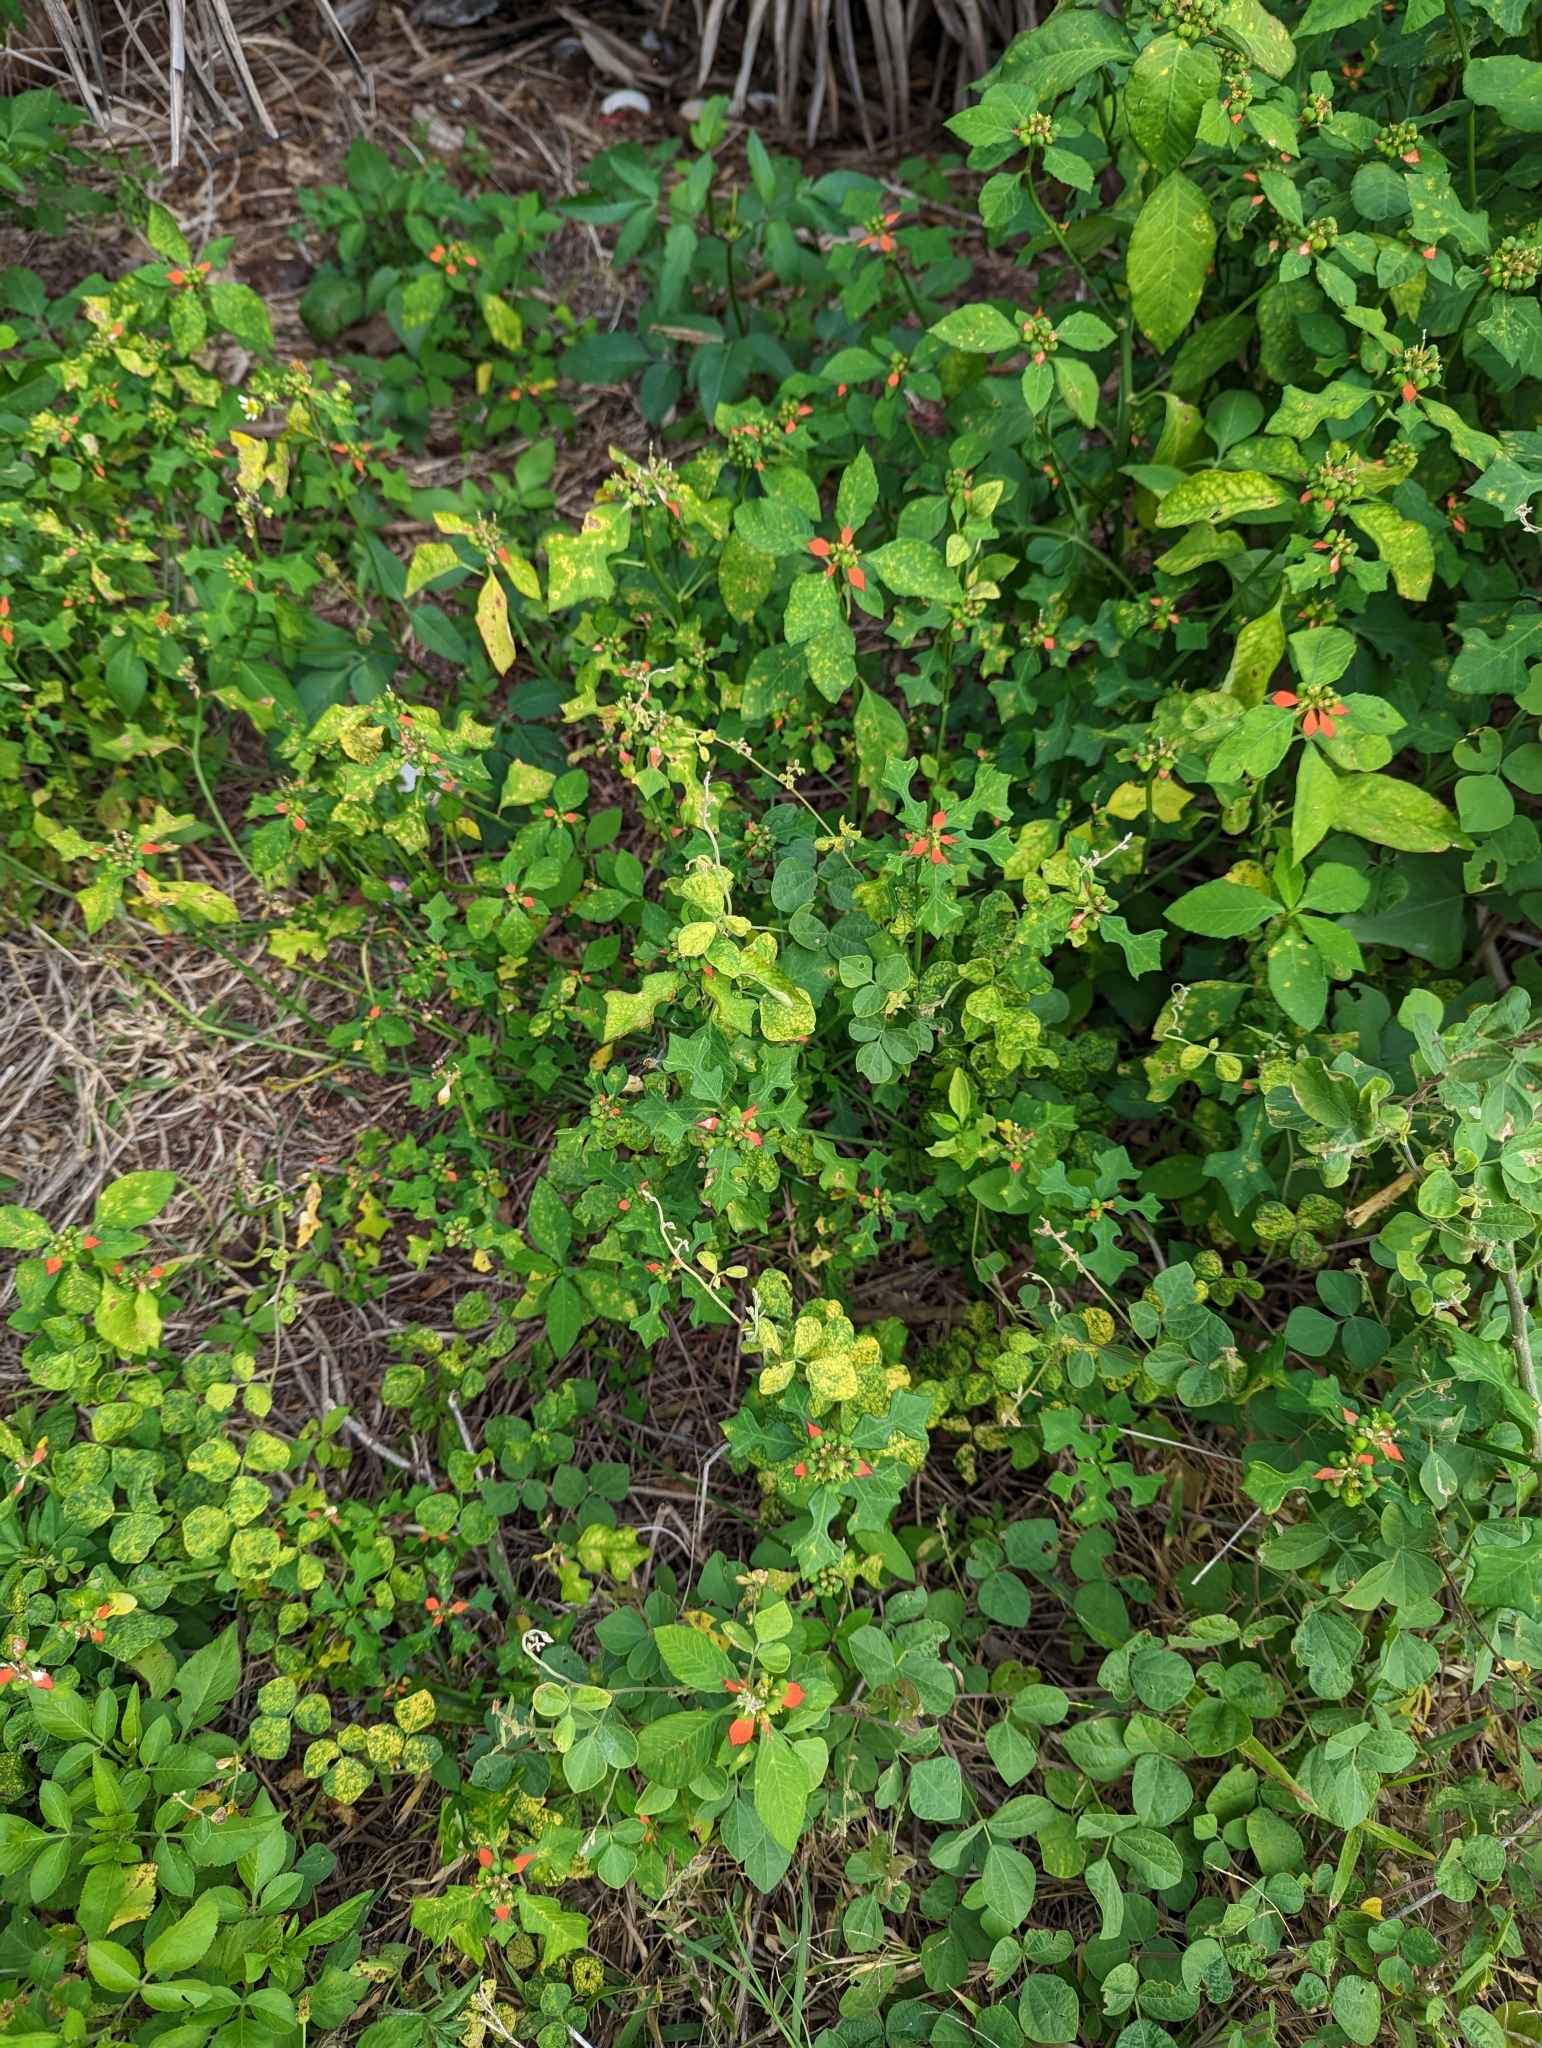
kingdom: Plantae
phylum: Tracheophyta
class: Magnoliopsida
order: Malpighiales
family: Euphorbiaceae
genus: Euphorbia
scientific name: Euphorbia heterophylla
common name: Mexican fireplant
